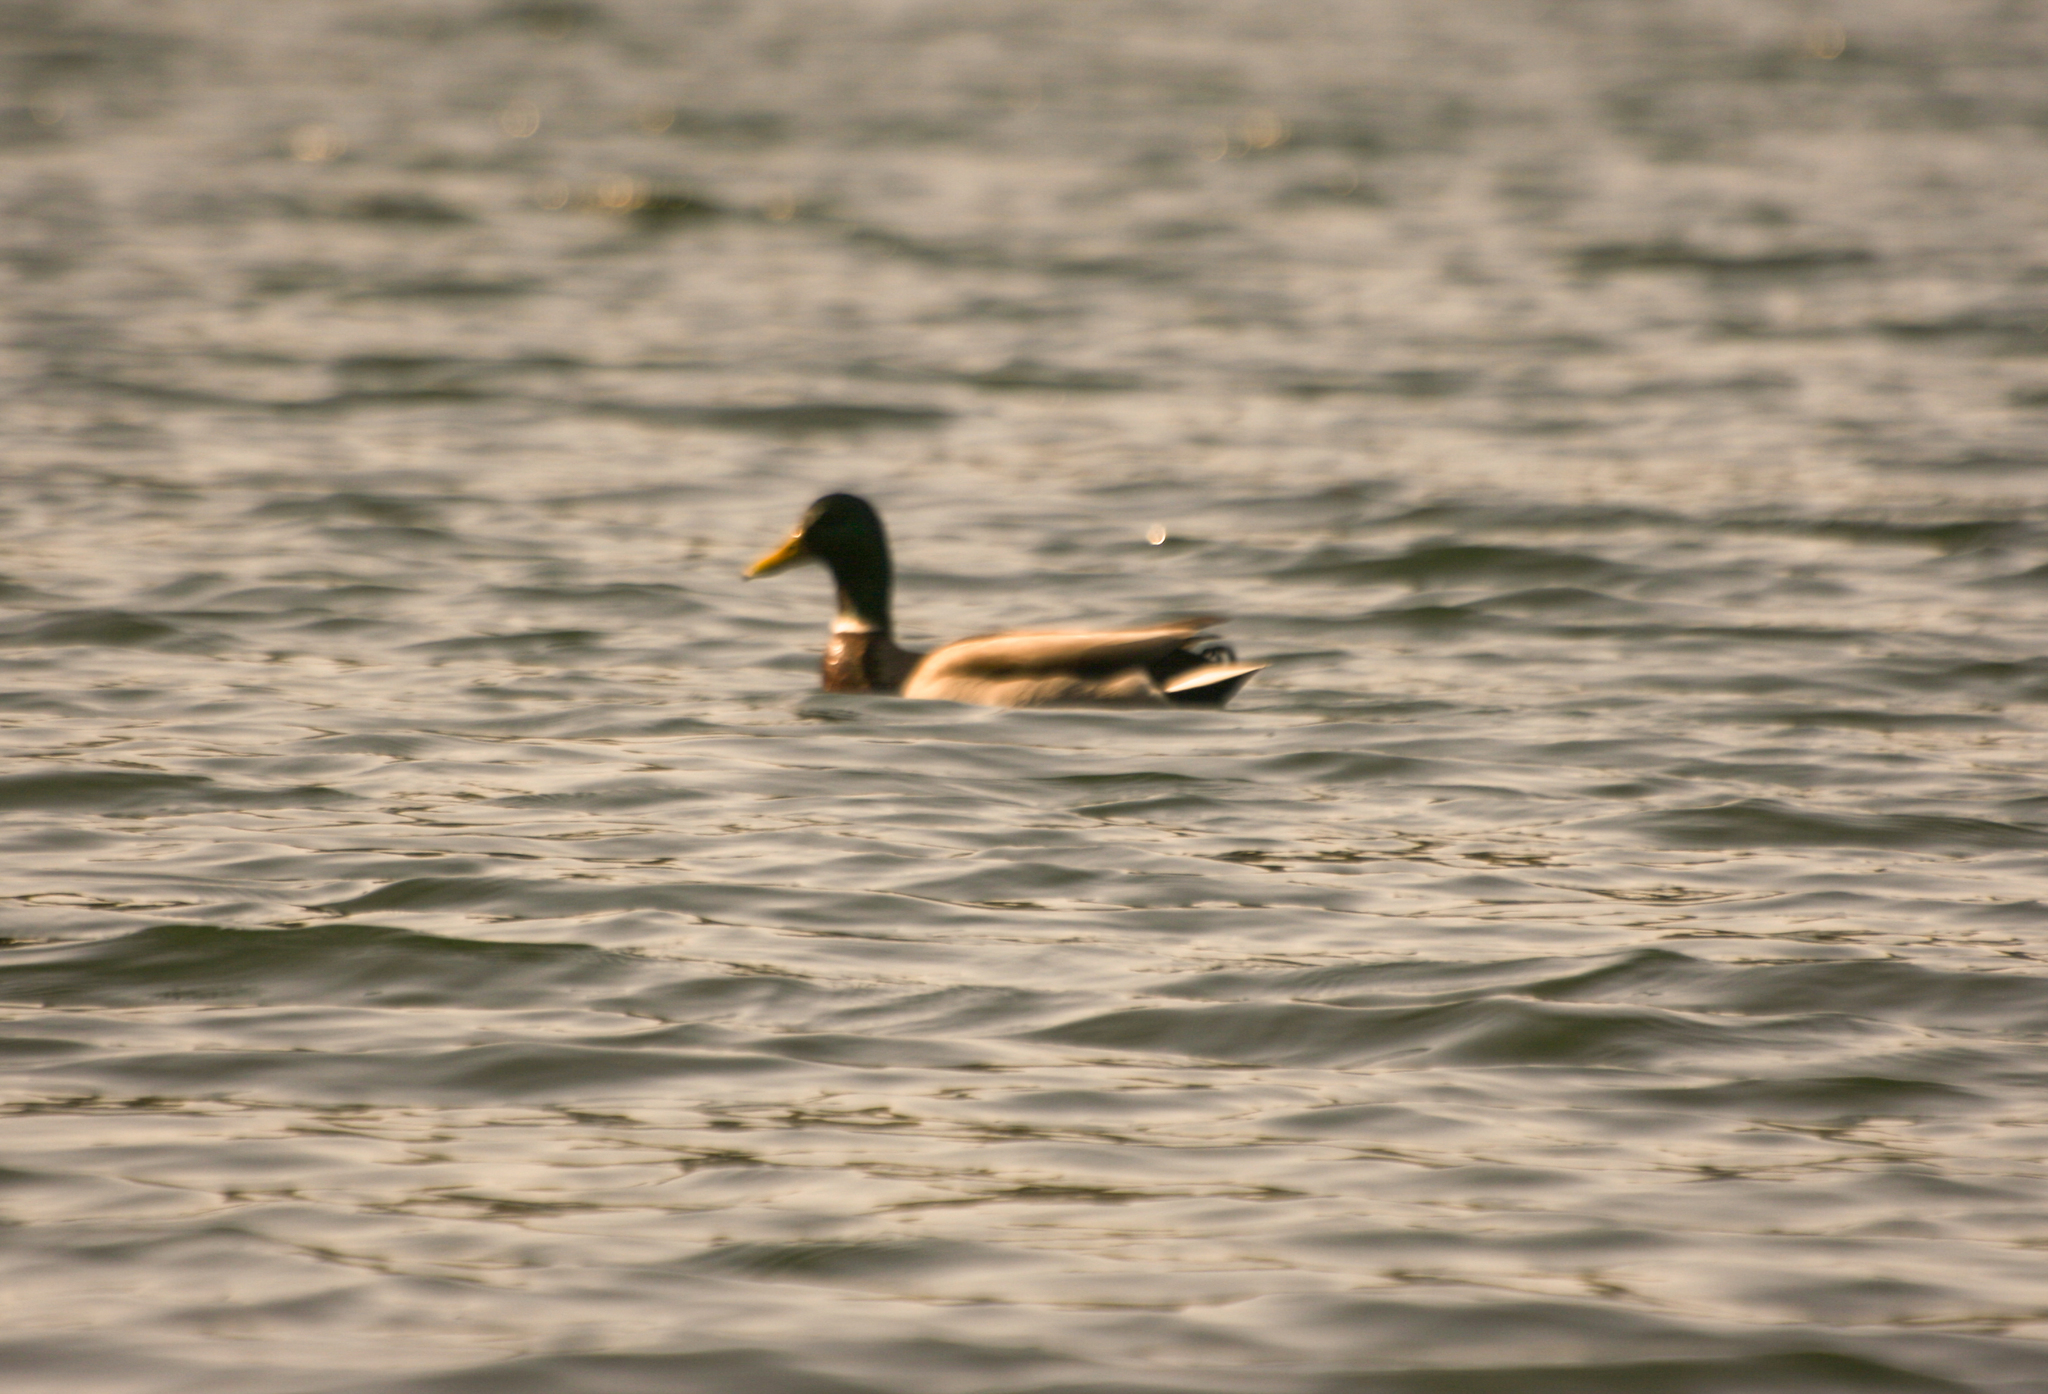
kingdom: Animalia
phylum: Chordata
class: Aves
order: Anseriformes
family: Anatidae
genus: Anas
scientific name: Anas platyrhynchos
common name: Mallard
